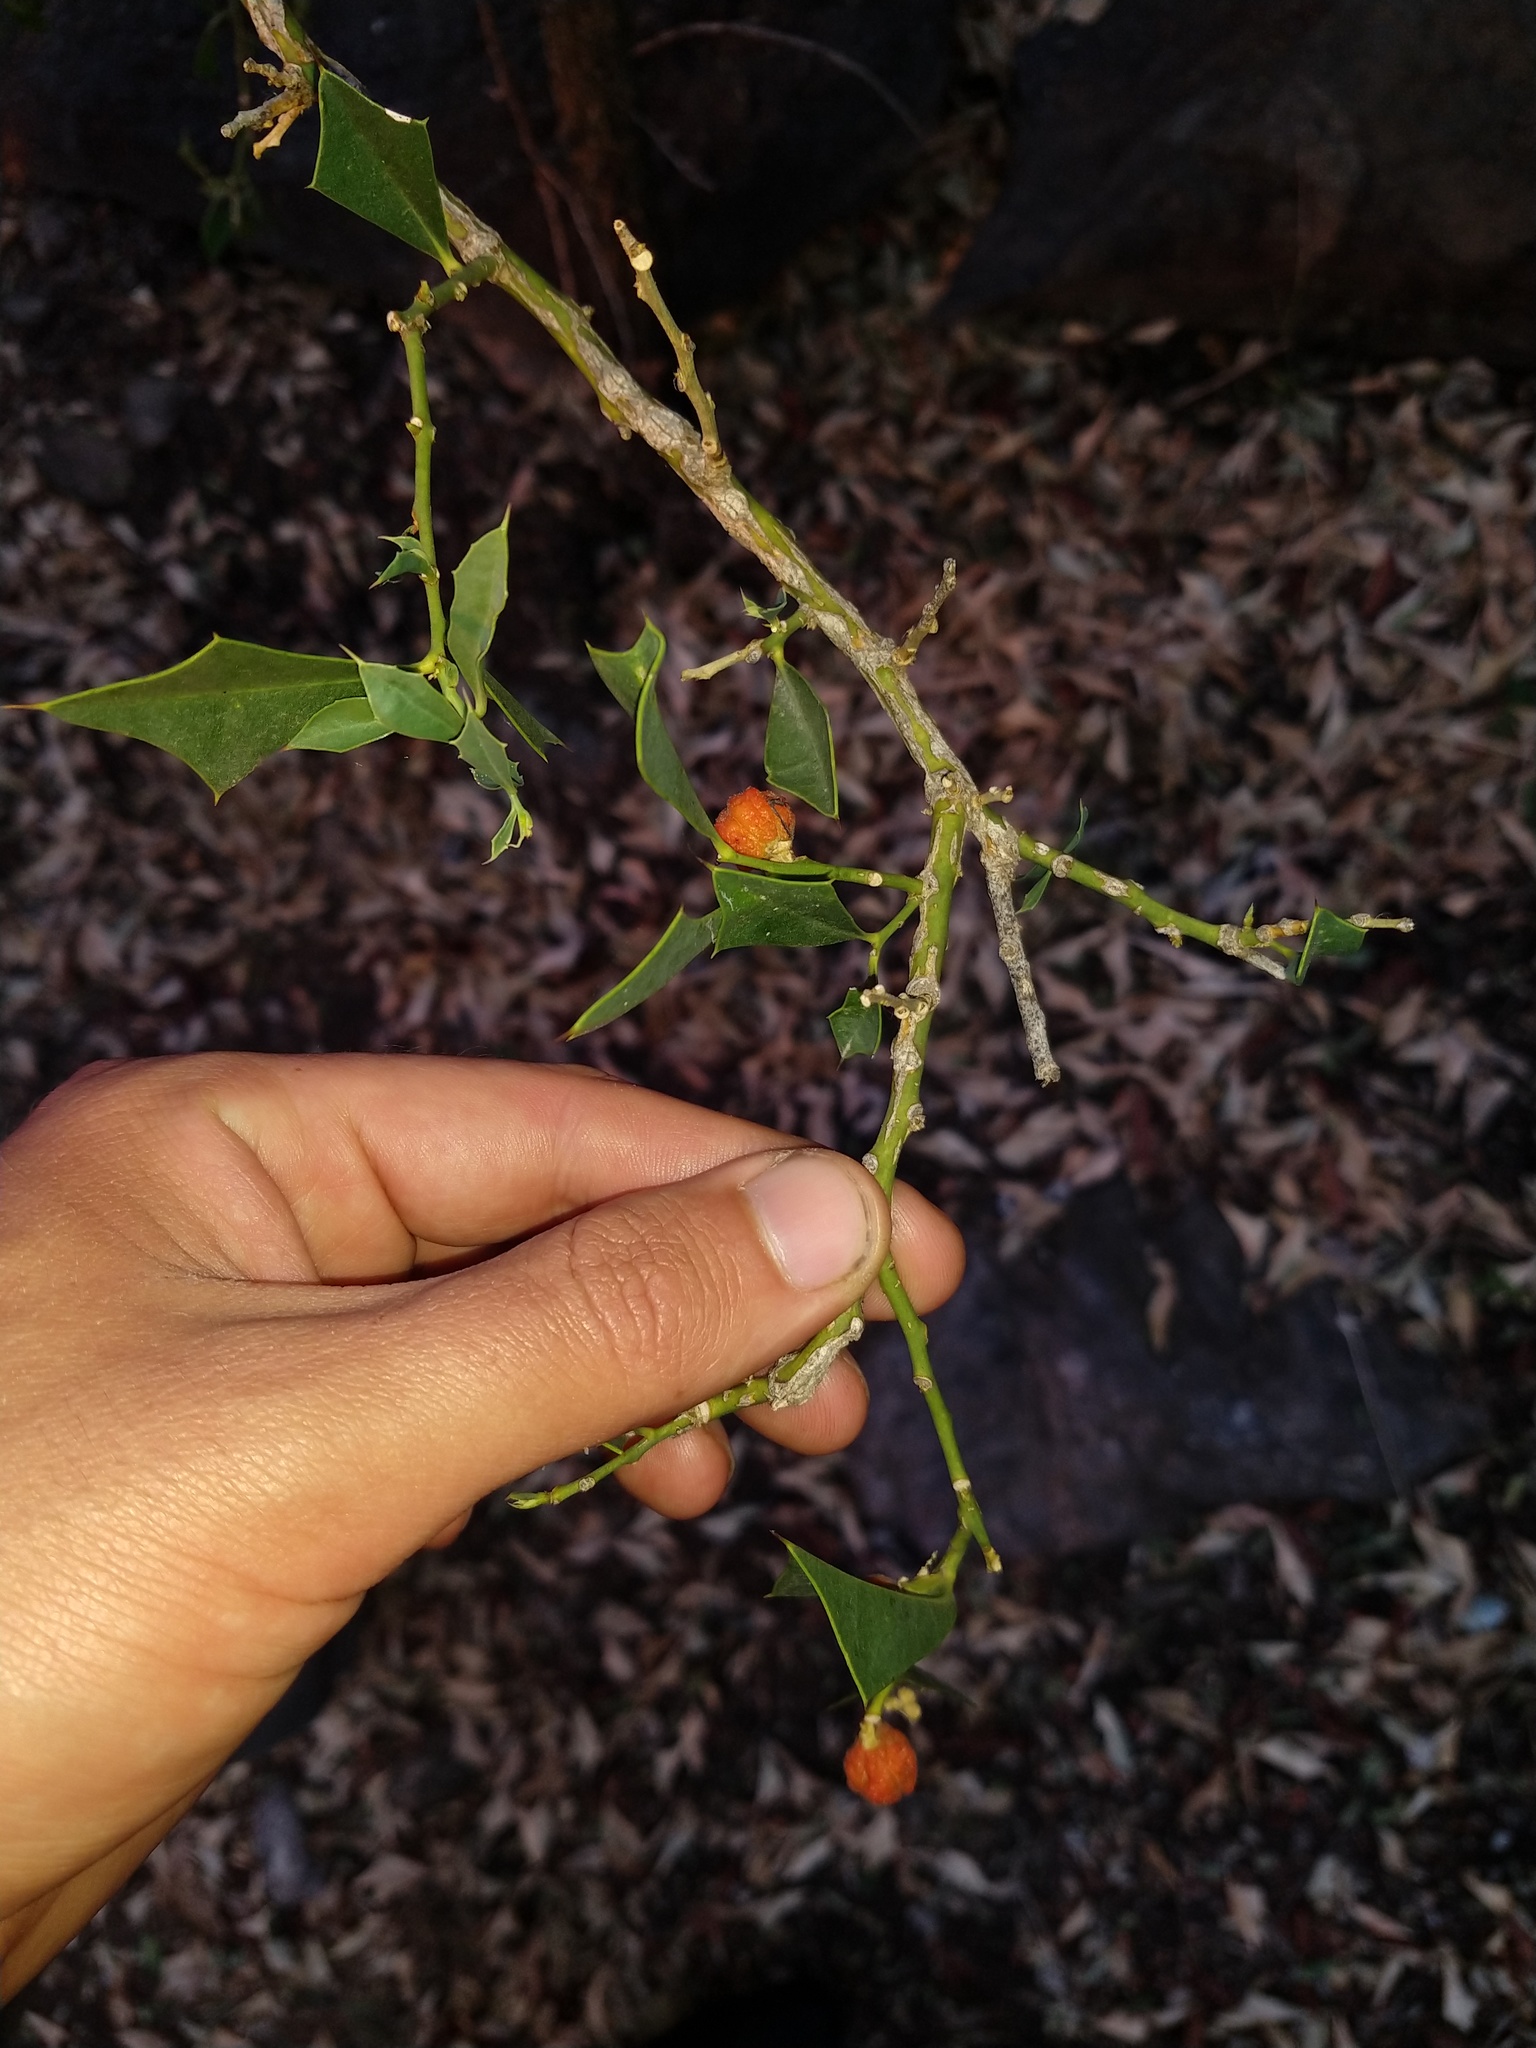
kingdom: Plantae
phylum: Tracheophyta
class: Magnoliopsida
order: Santalales
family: Cervantesiaceae
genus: Jodina
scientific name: Jodina rhombifolia
